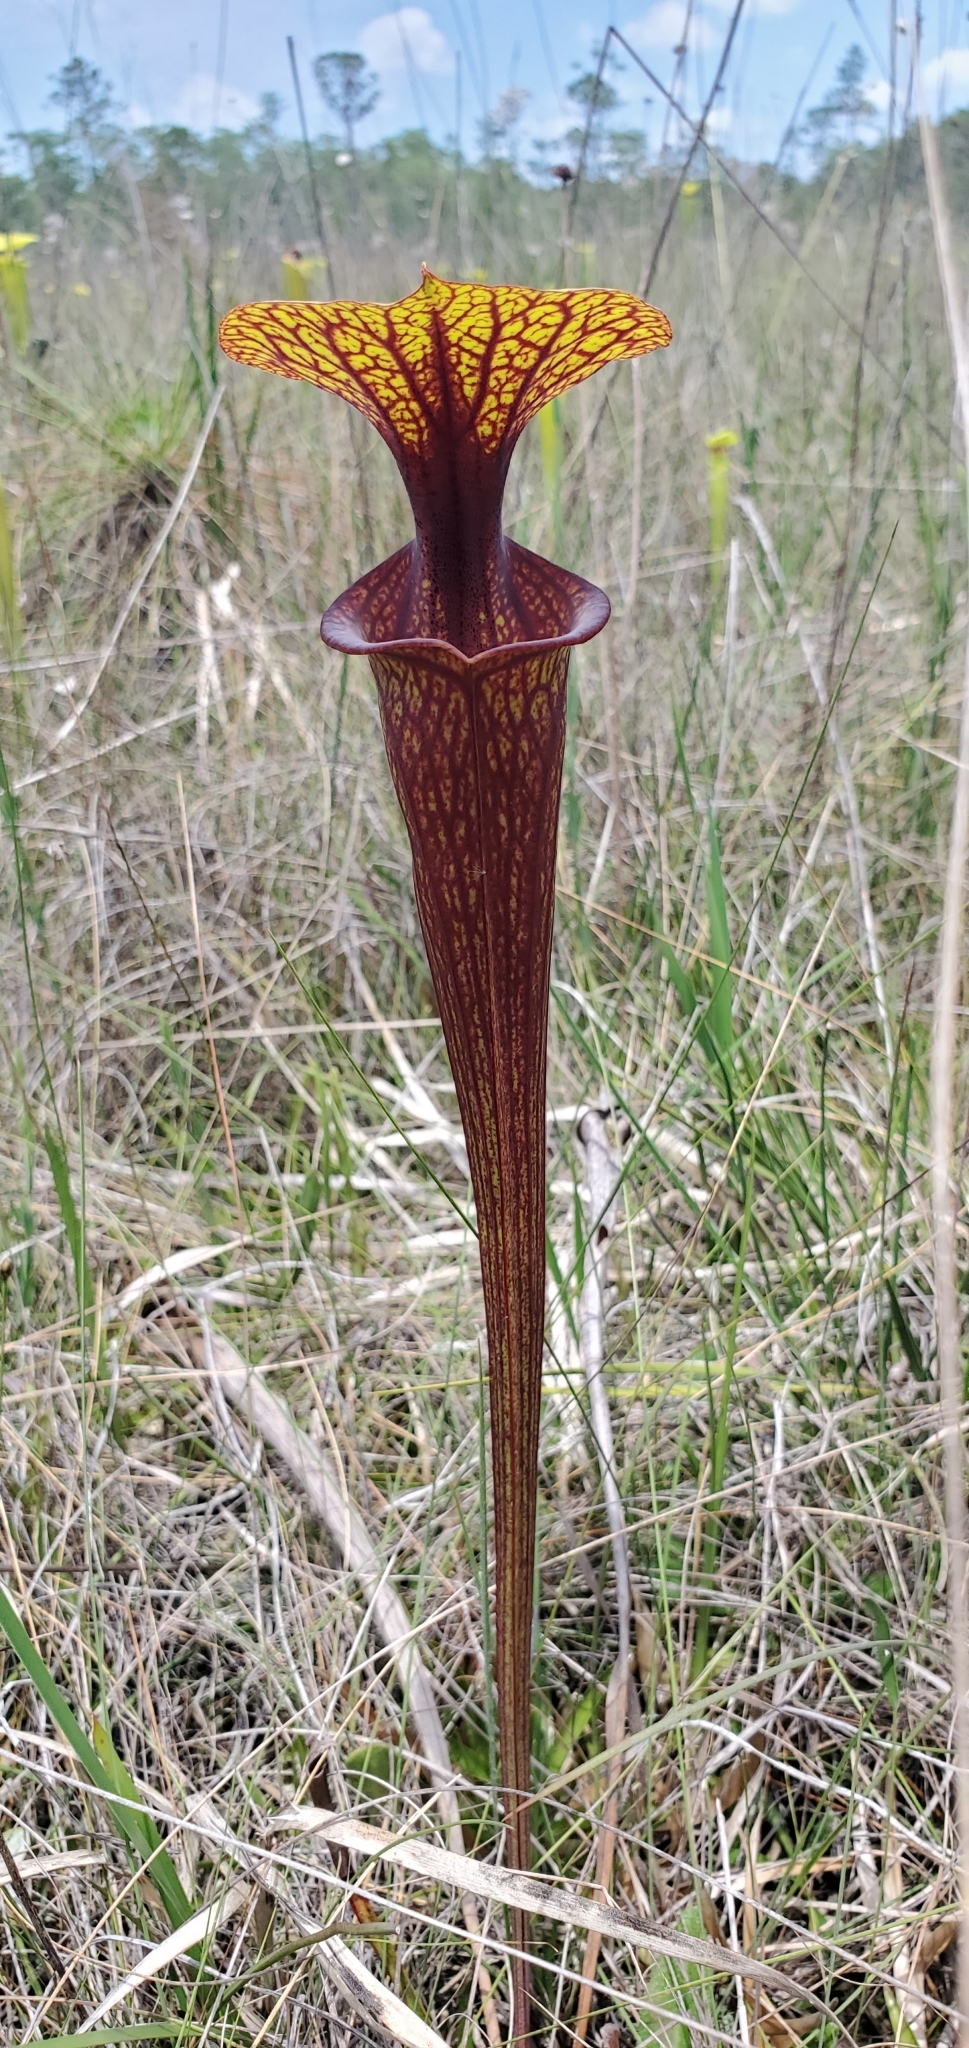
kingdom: Plantae
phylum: Tracheophyta
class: Magnoliopsida
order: Ericales
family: Sarraceniaceae
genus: Sarracenia
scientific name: Sarracenia flava
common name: Trumpets
